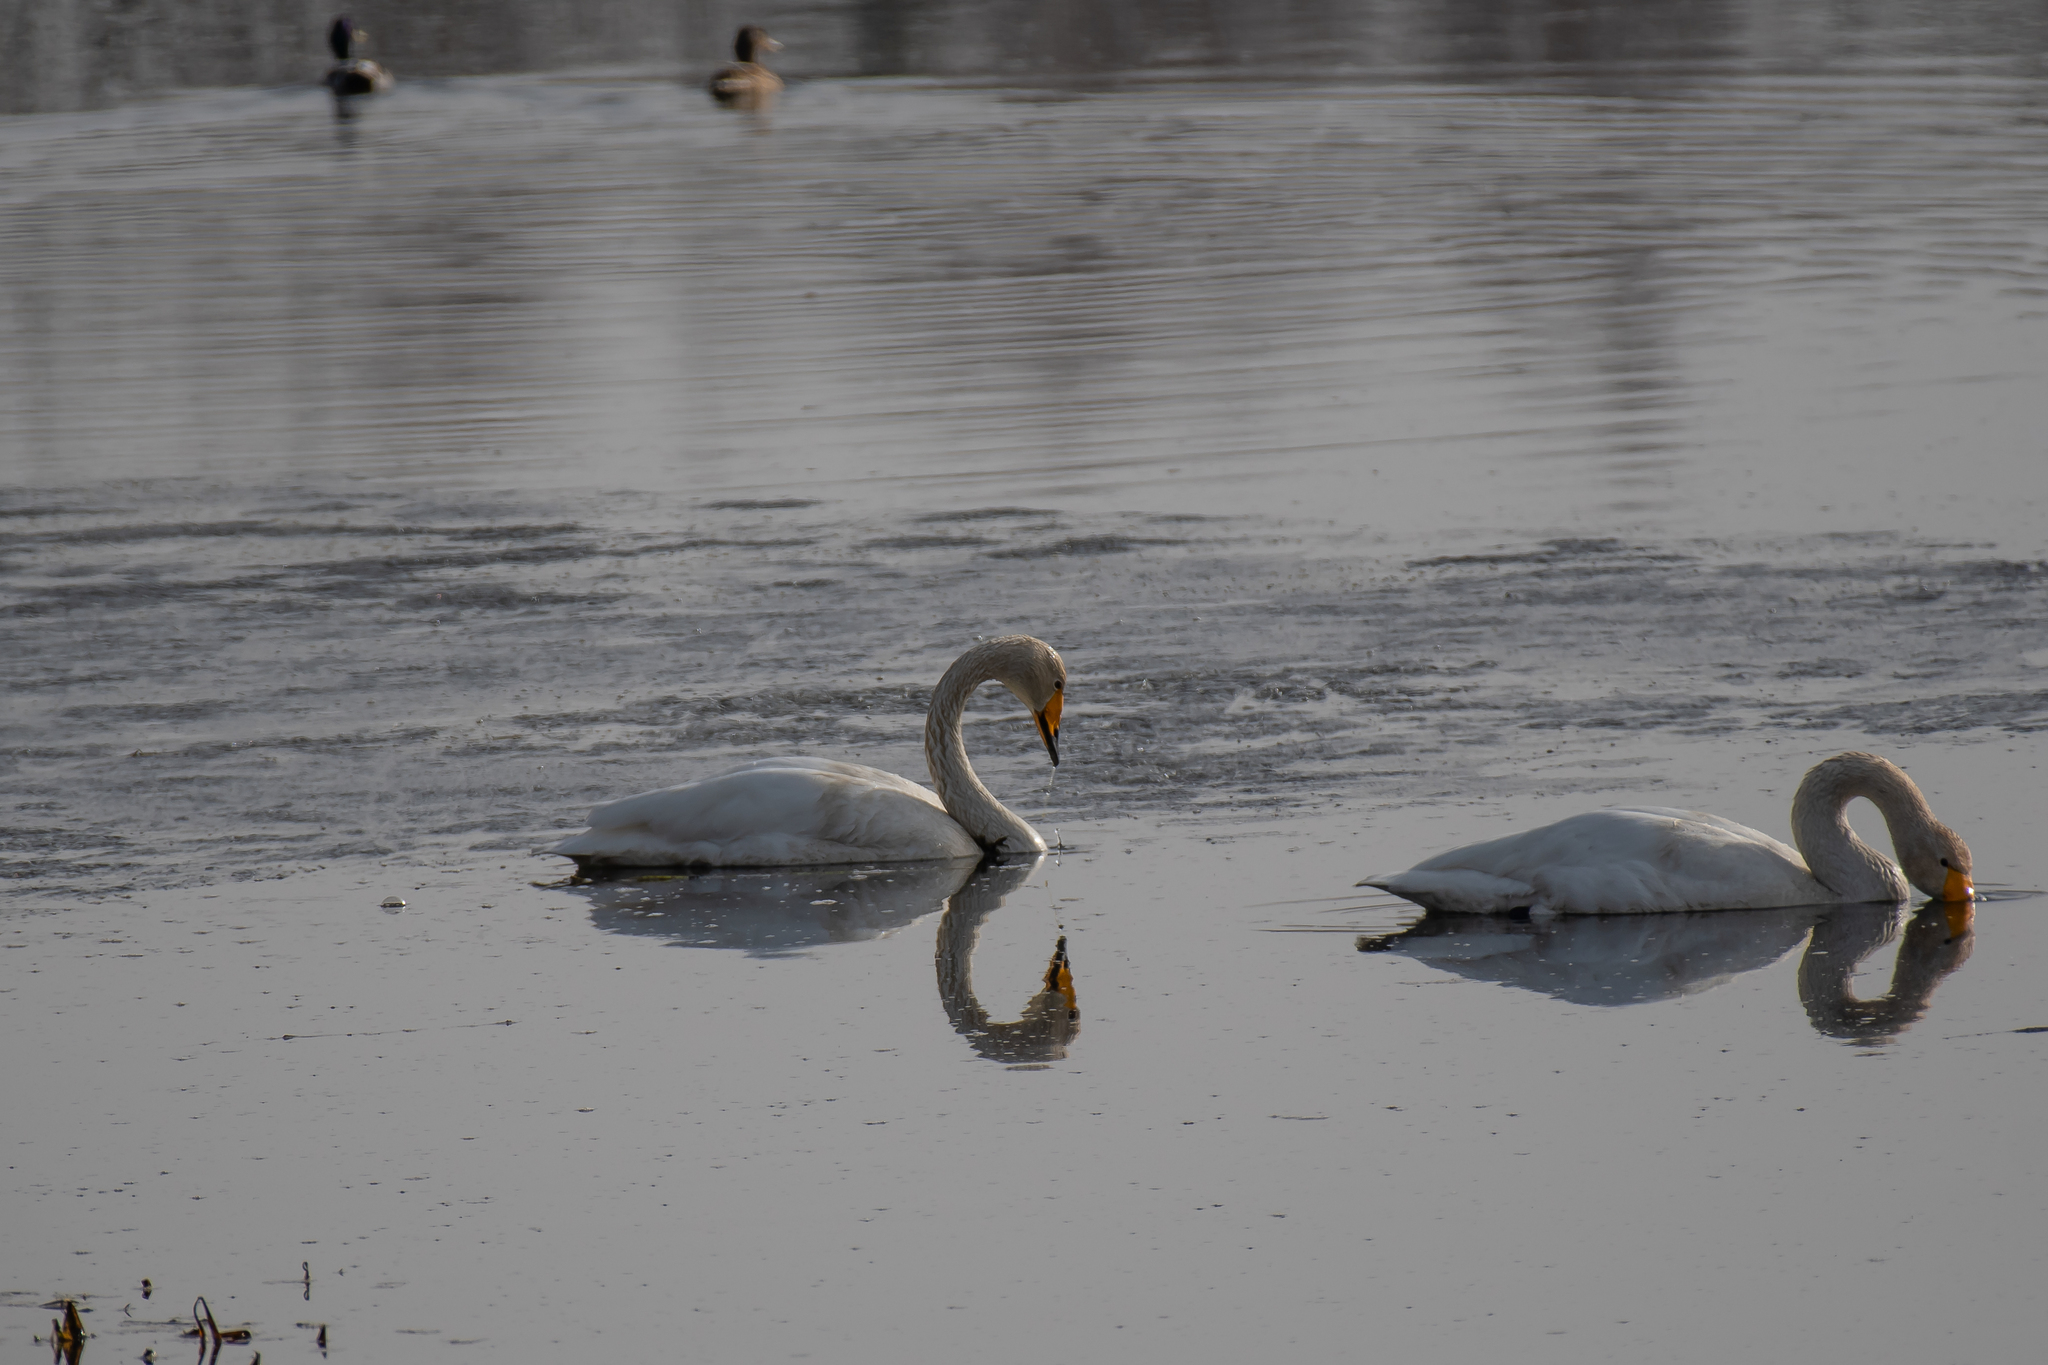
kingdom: Animalia
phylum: Chordata
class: Aves
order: Anseriformes
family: Anatidae
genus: Cygnus
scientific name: Cygnus cygnus
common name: Whooper swan
